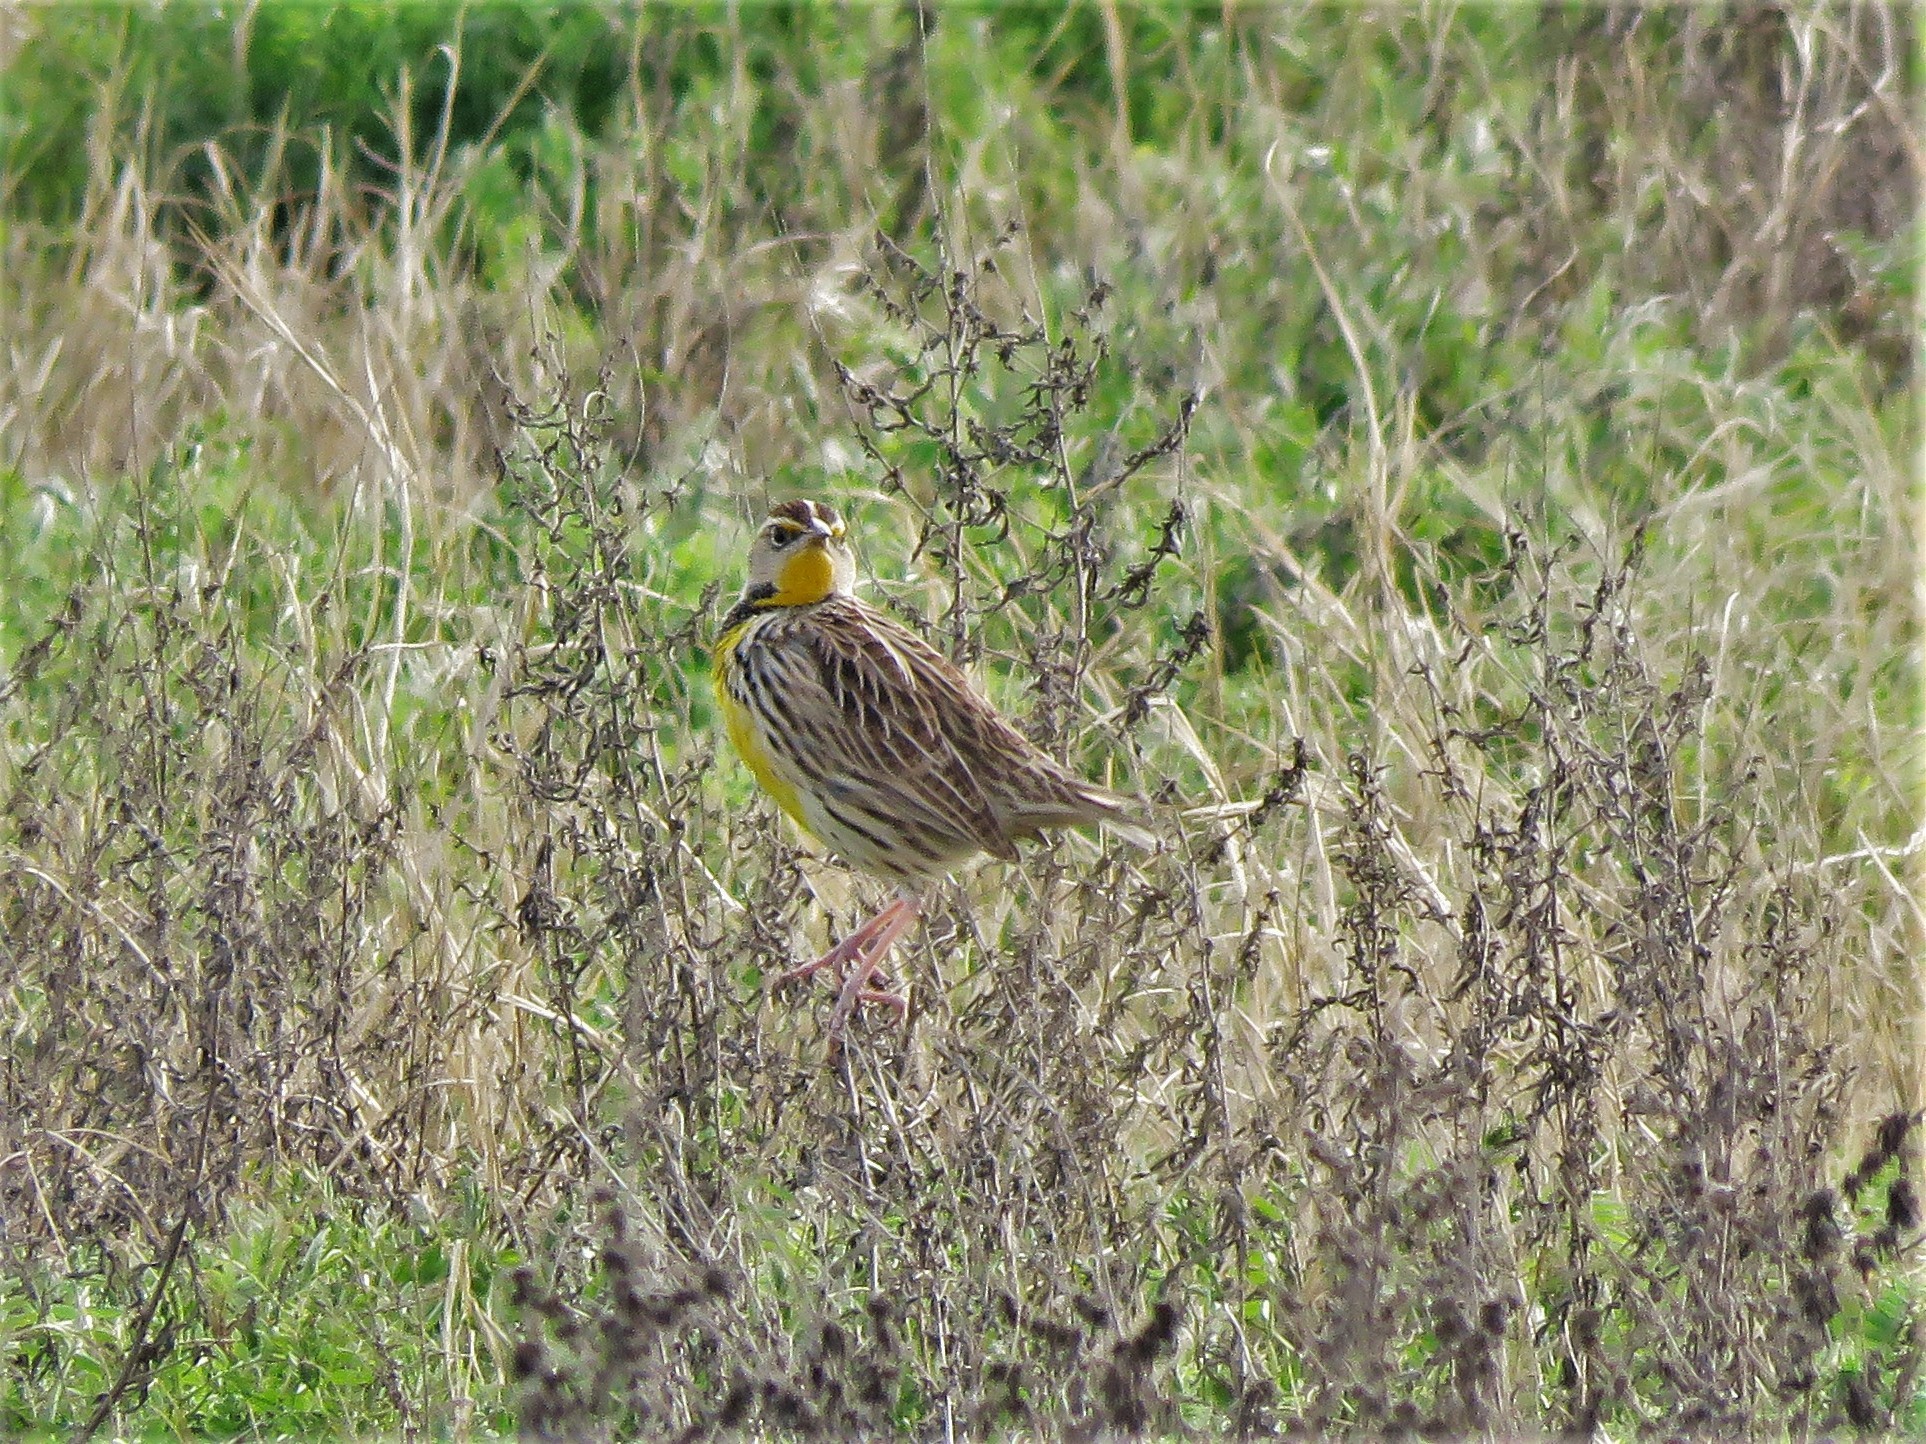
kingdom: Animalia
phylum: Chordata
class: Aves
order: Passeriformes
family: Icteridae
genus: Sturnella
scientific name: Sturnella magna
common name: Eastern meadowlark
